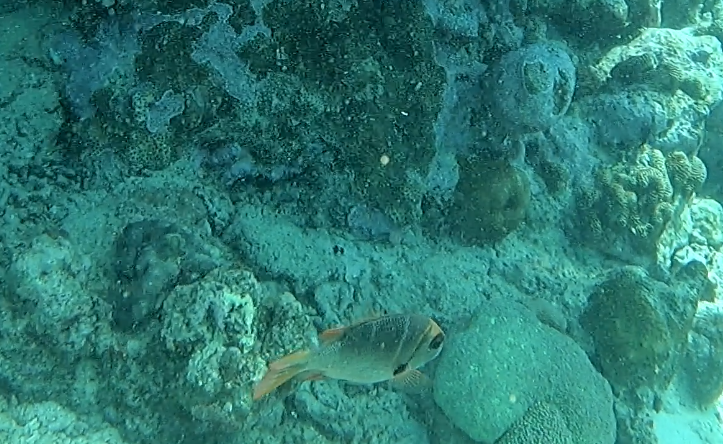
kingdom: Animalia
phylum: Chordata
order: Perciformes
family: Lethrinidae
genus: Monotaxis
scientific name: Monotaxis heterodon
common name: Redfin emperor
